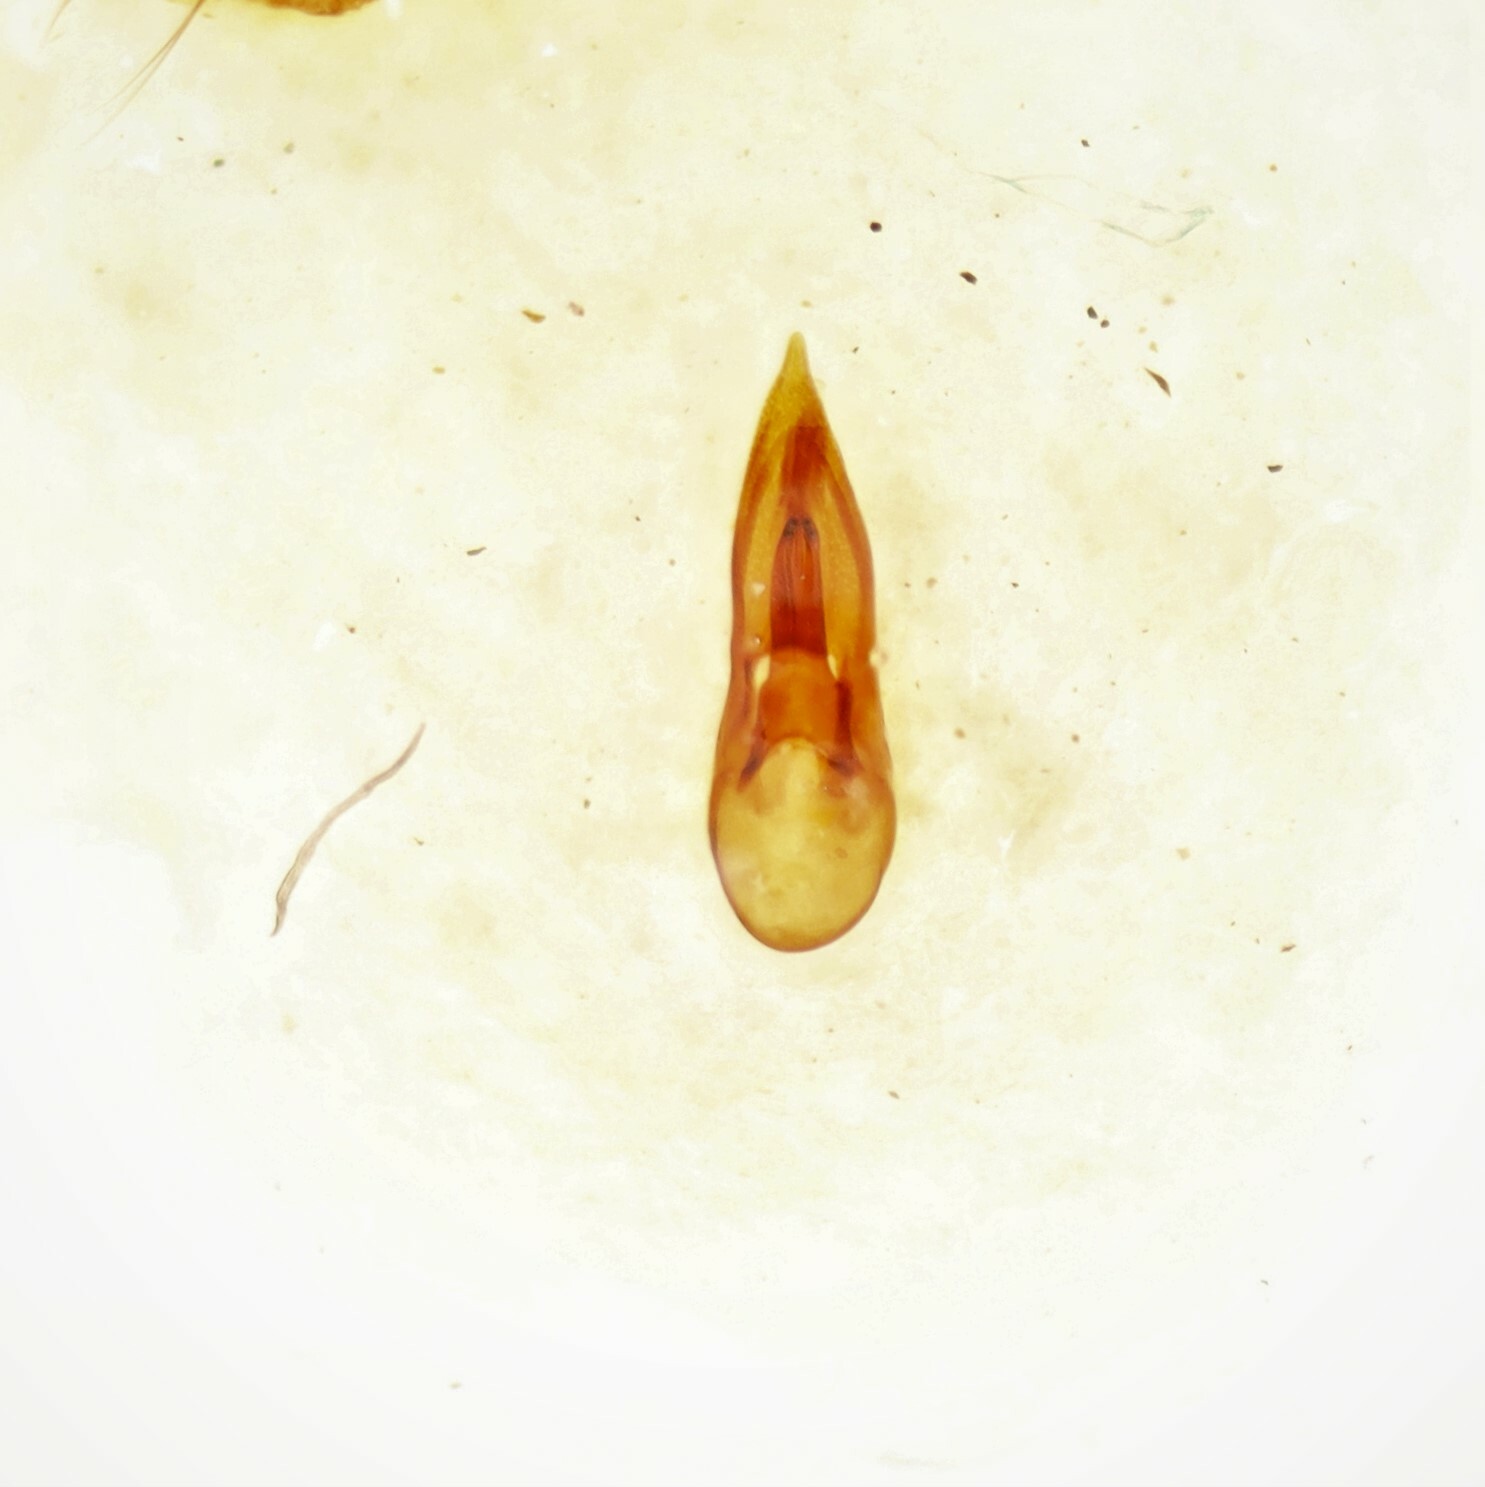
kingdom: Animalia
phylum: Arthropoda
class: Insecta
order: Coleoptera
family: Staphylinidae
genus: Philonthus
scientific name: Philonthus lindrothi
